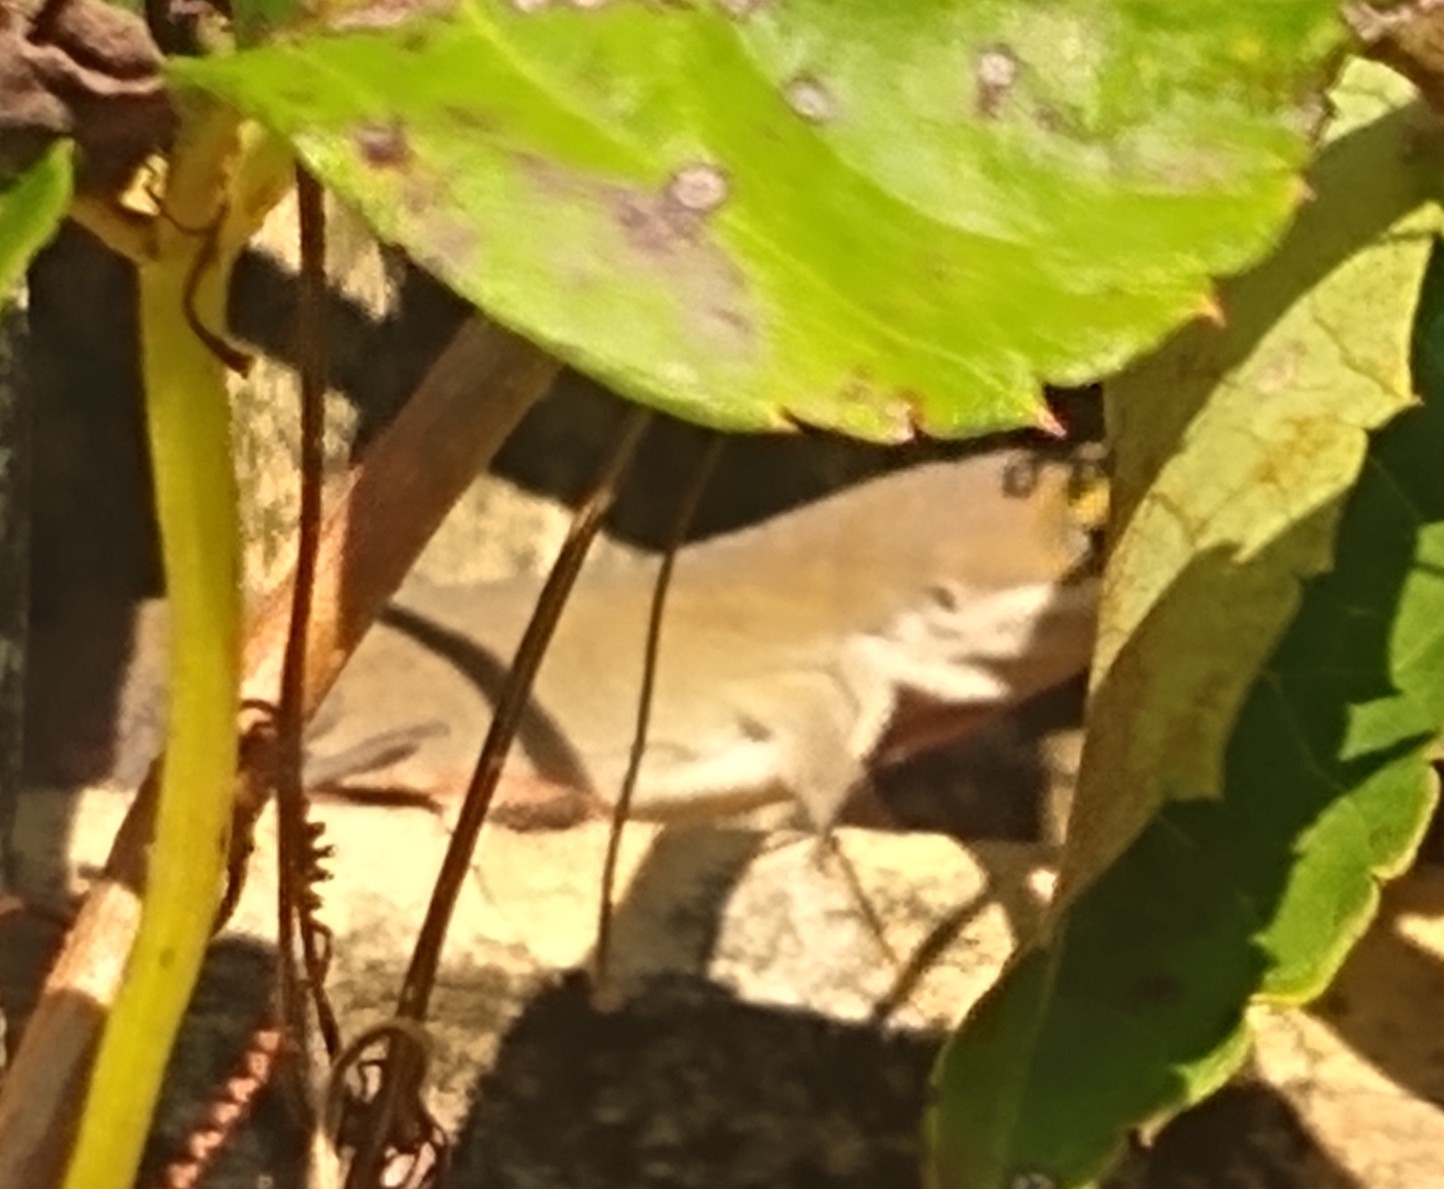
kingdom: Animalia
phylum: Chordata
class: Squamata
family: Dactyloidae
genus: Anolis
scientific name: Anolis carolinensis
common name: Green anole
